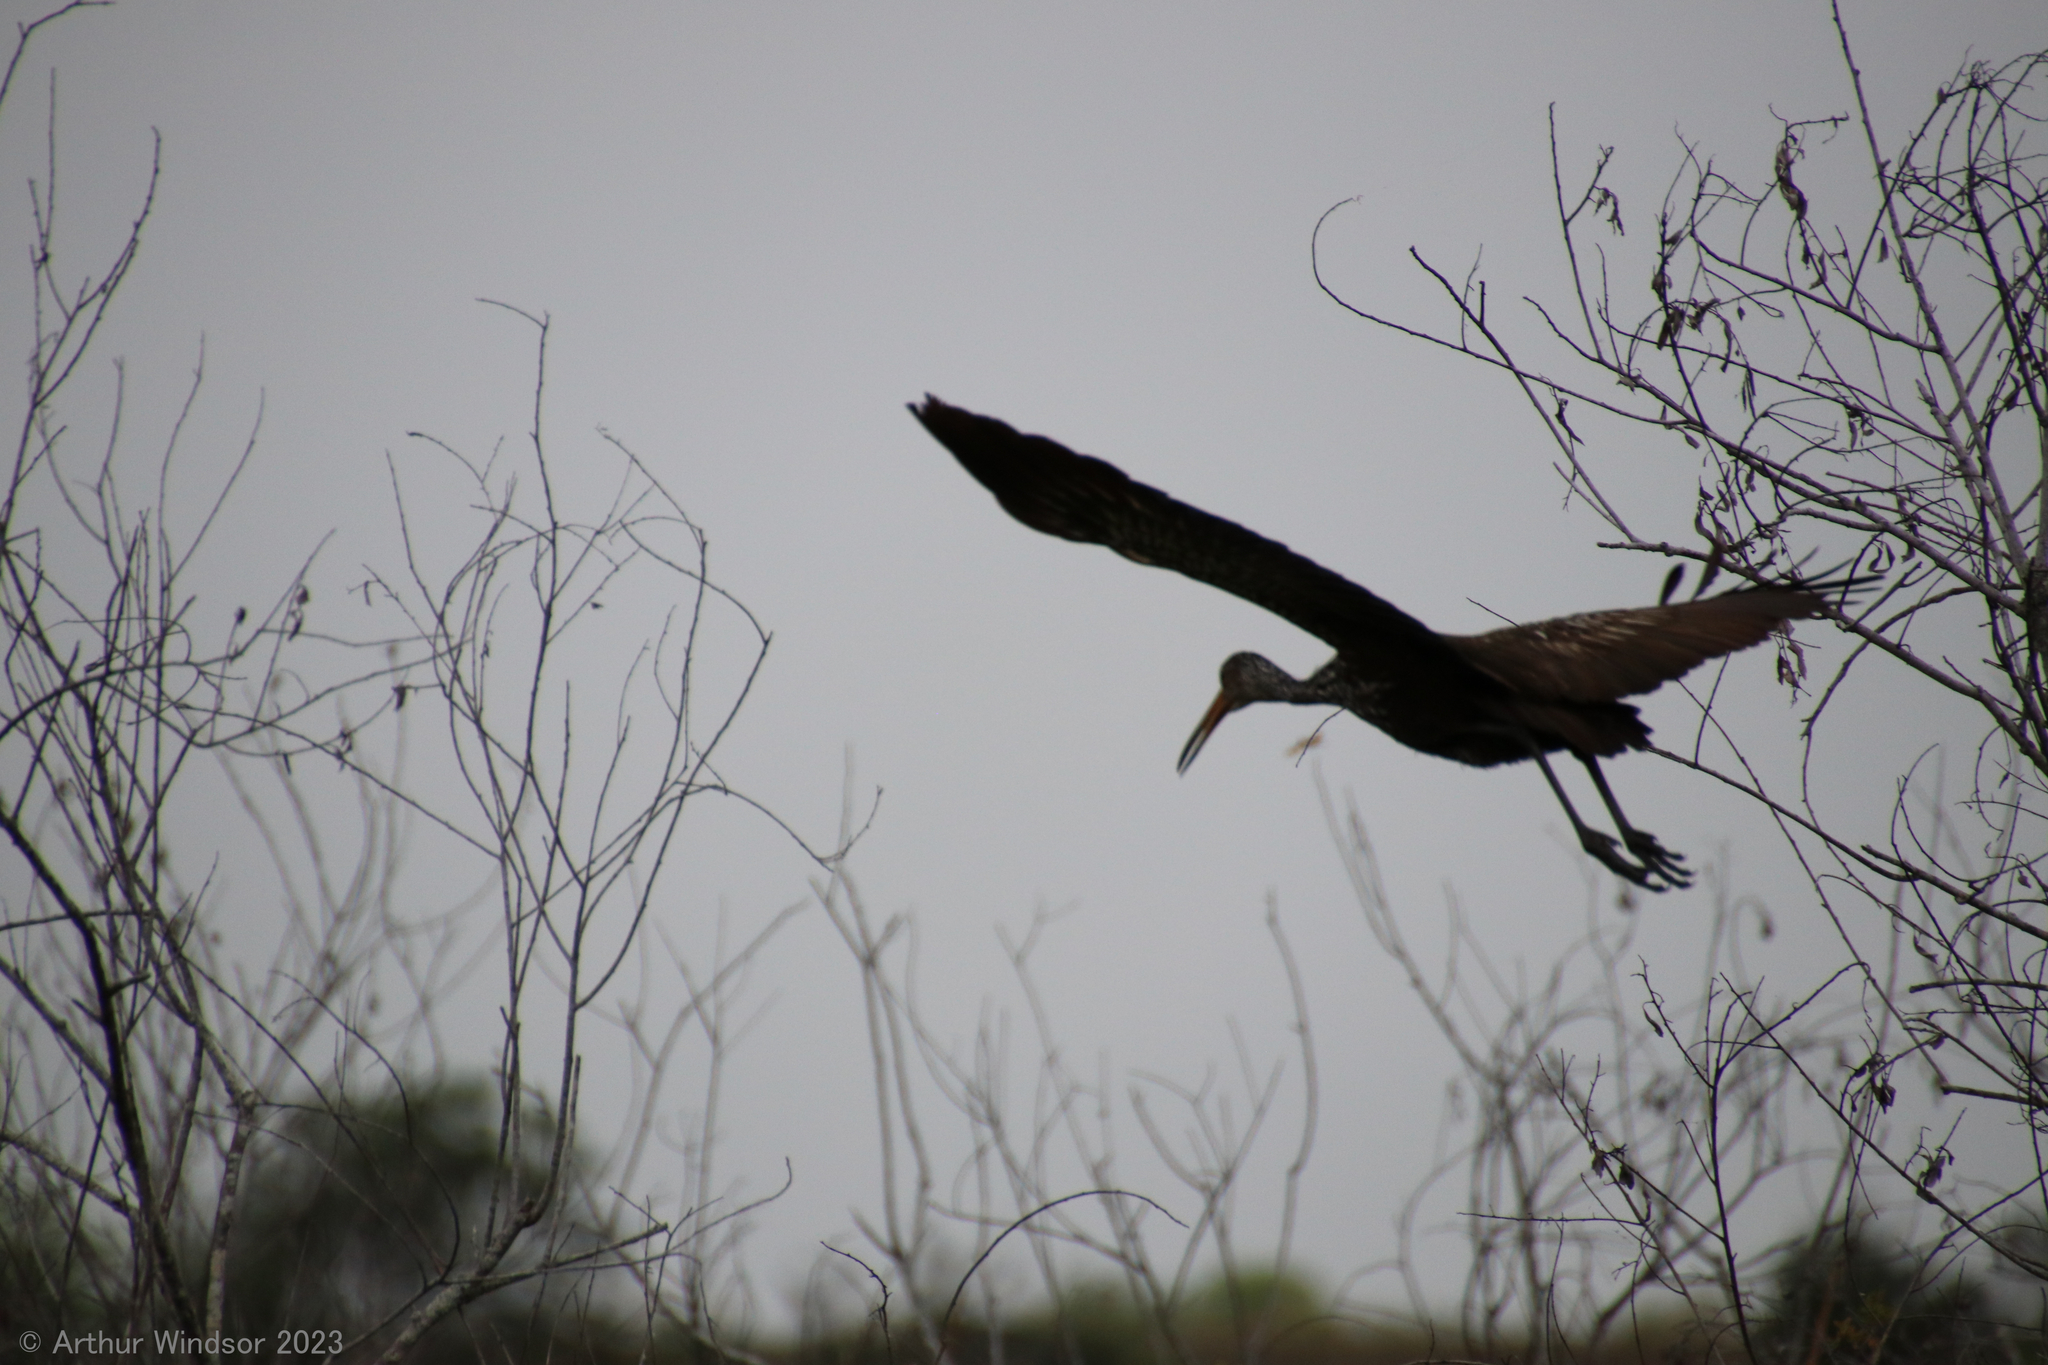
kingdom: Animalia
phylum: Chordata
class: Aves
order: Gruiformes
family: Aramidae
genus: Aramus
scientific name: Aramus guarauna
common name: Limpkin
